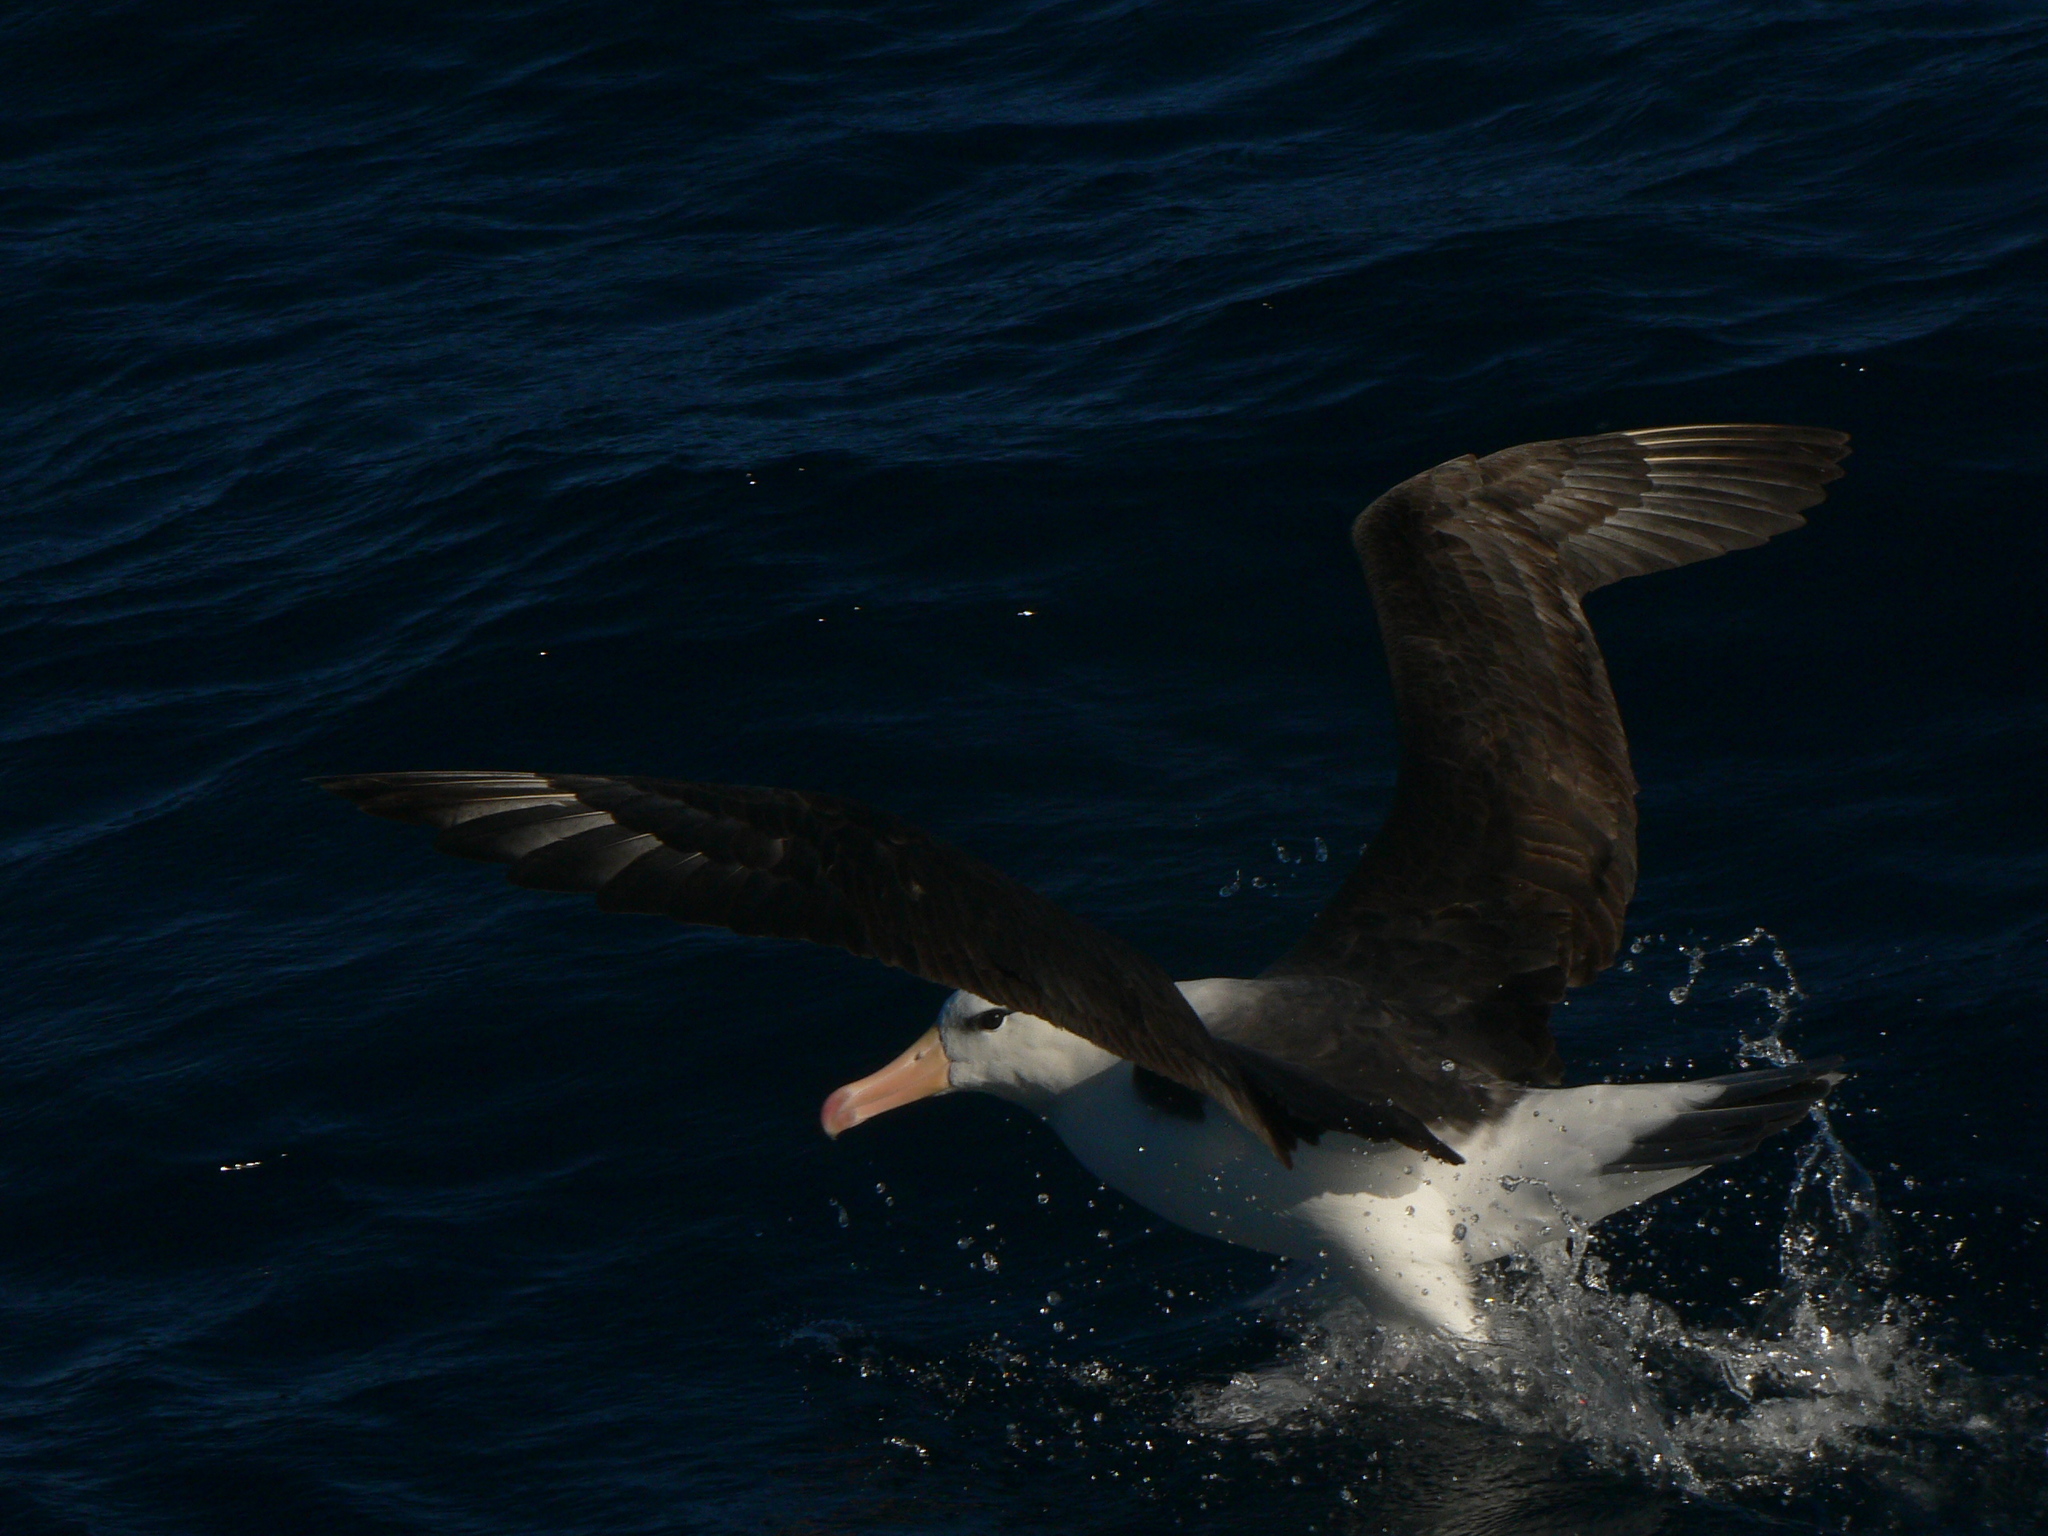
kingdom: Animalia
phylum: Chordata
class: Aves
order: Procellariiformes
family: Diomedeidae
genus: Thalassarche
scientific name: Thalassarche melanophris
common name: Black-browed albatross
